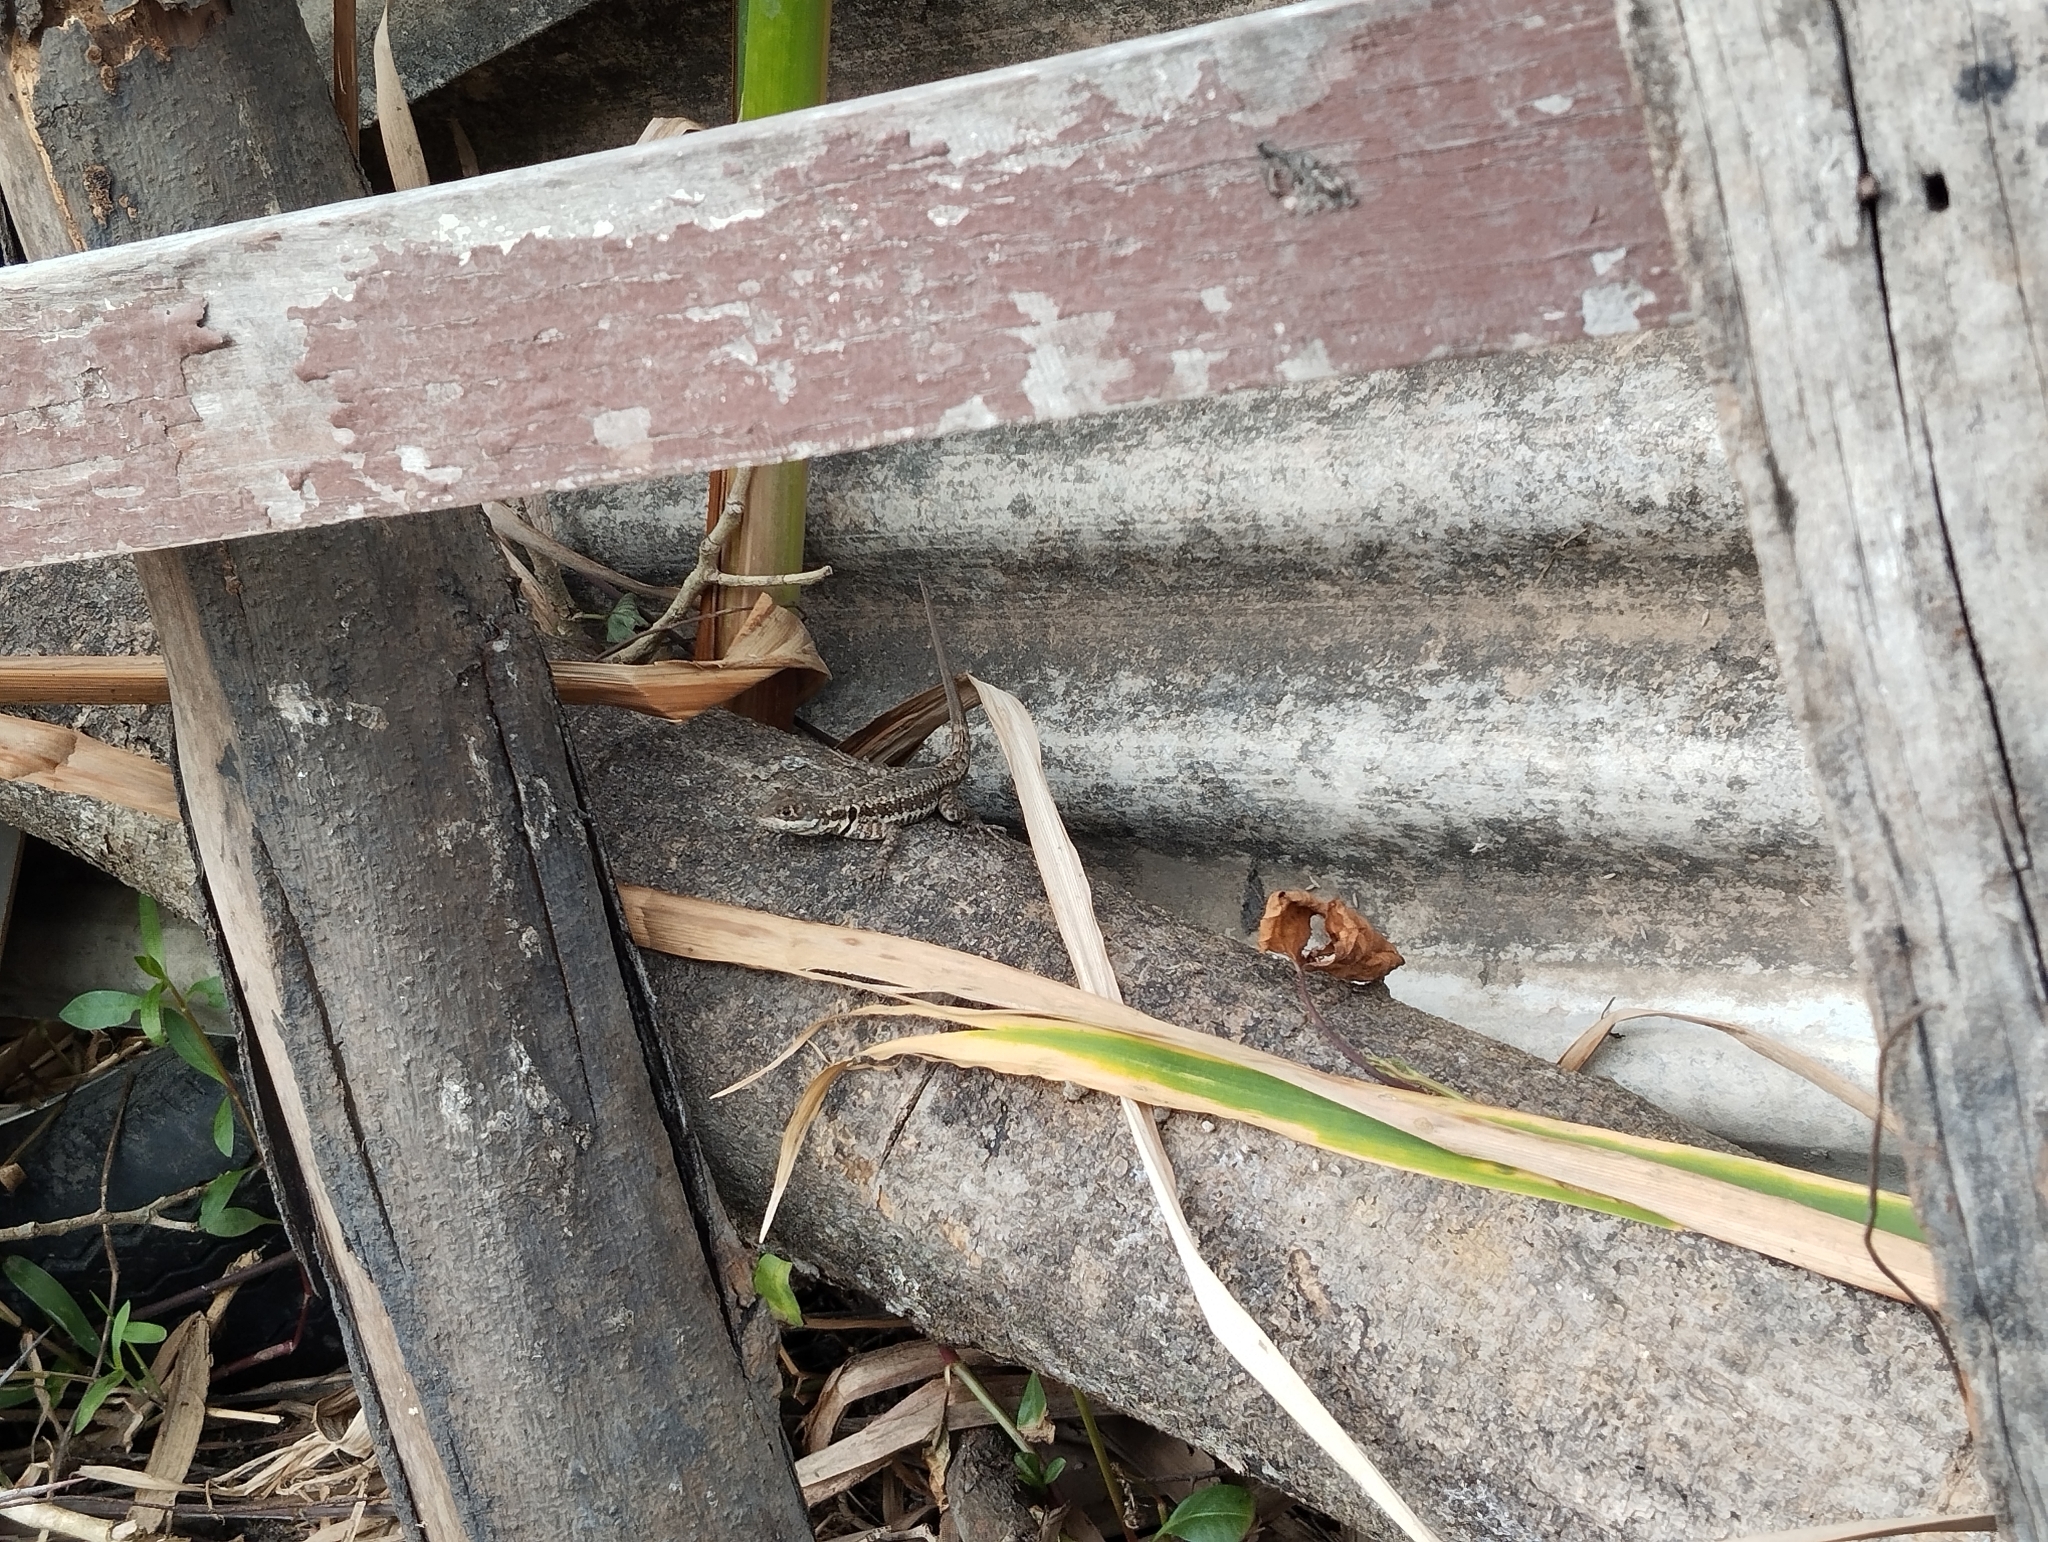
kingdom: Animalia
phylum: Chordata
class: Squamata
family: Tropiduridae
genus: Tropidurus
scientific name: Tropidurus torquatus
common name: Amazon lava lizard
